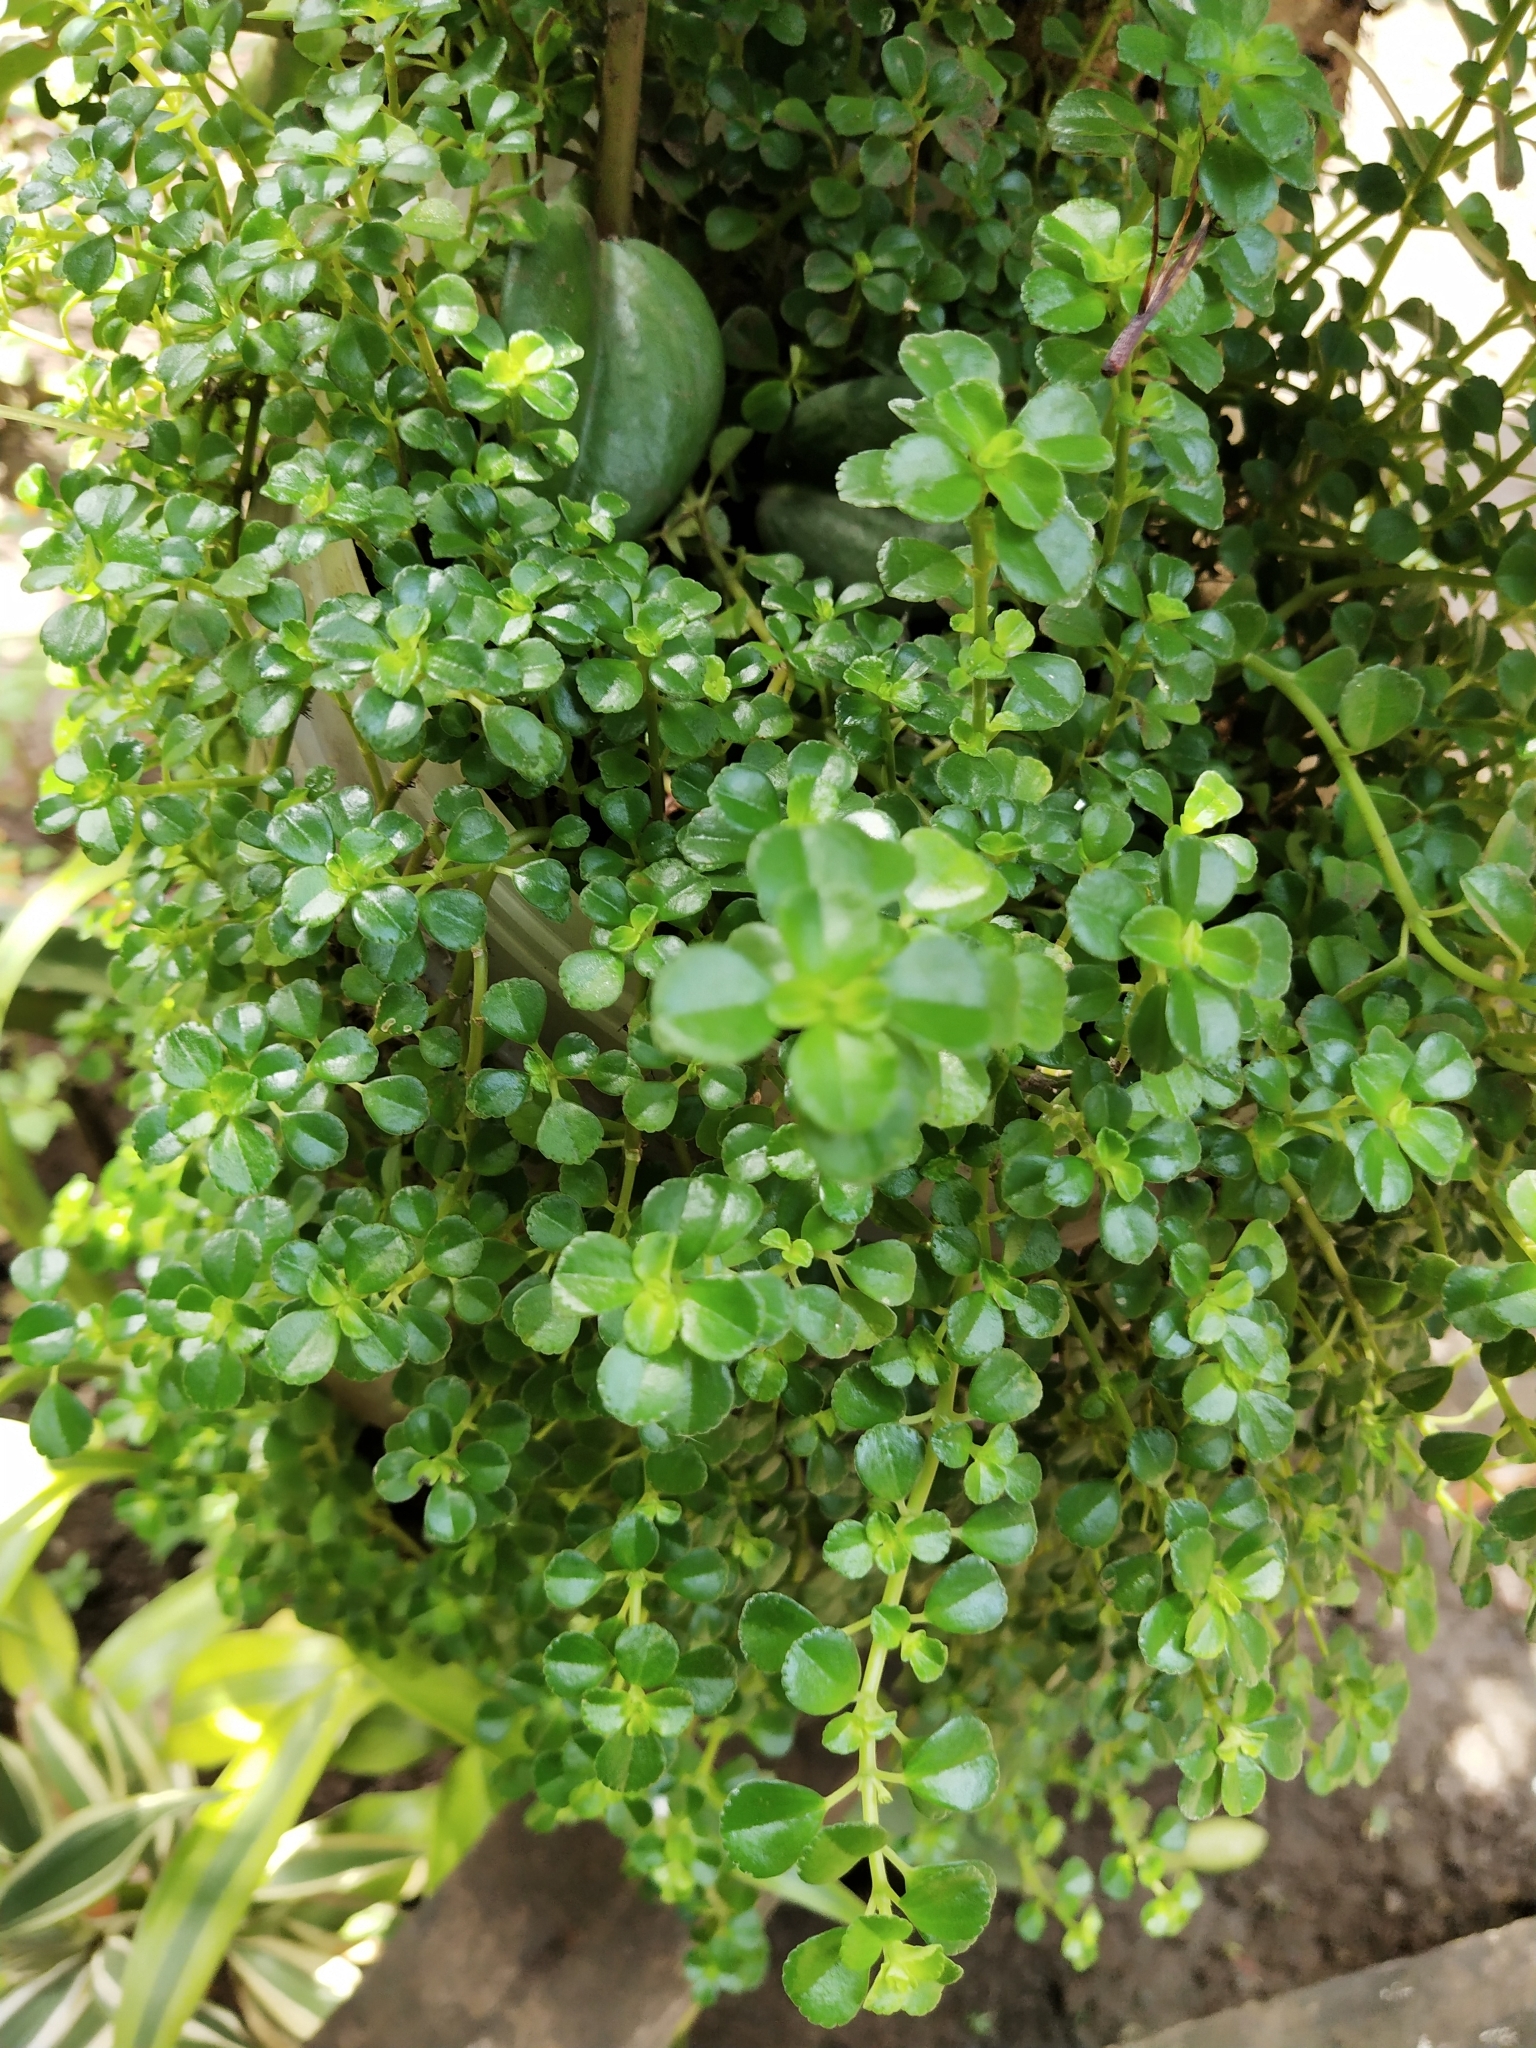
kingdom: Plantae
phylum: Tracheophyta
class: Magnoliopsida
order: Rosales
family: Urticaceae
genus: Pilea
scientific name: Pilea depressa
